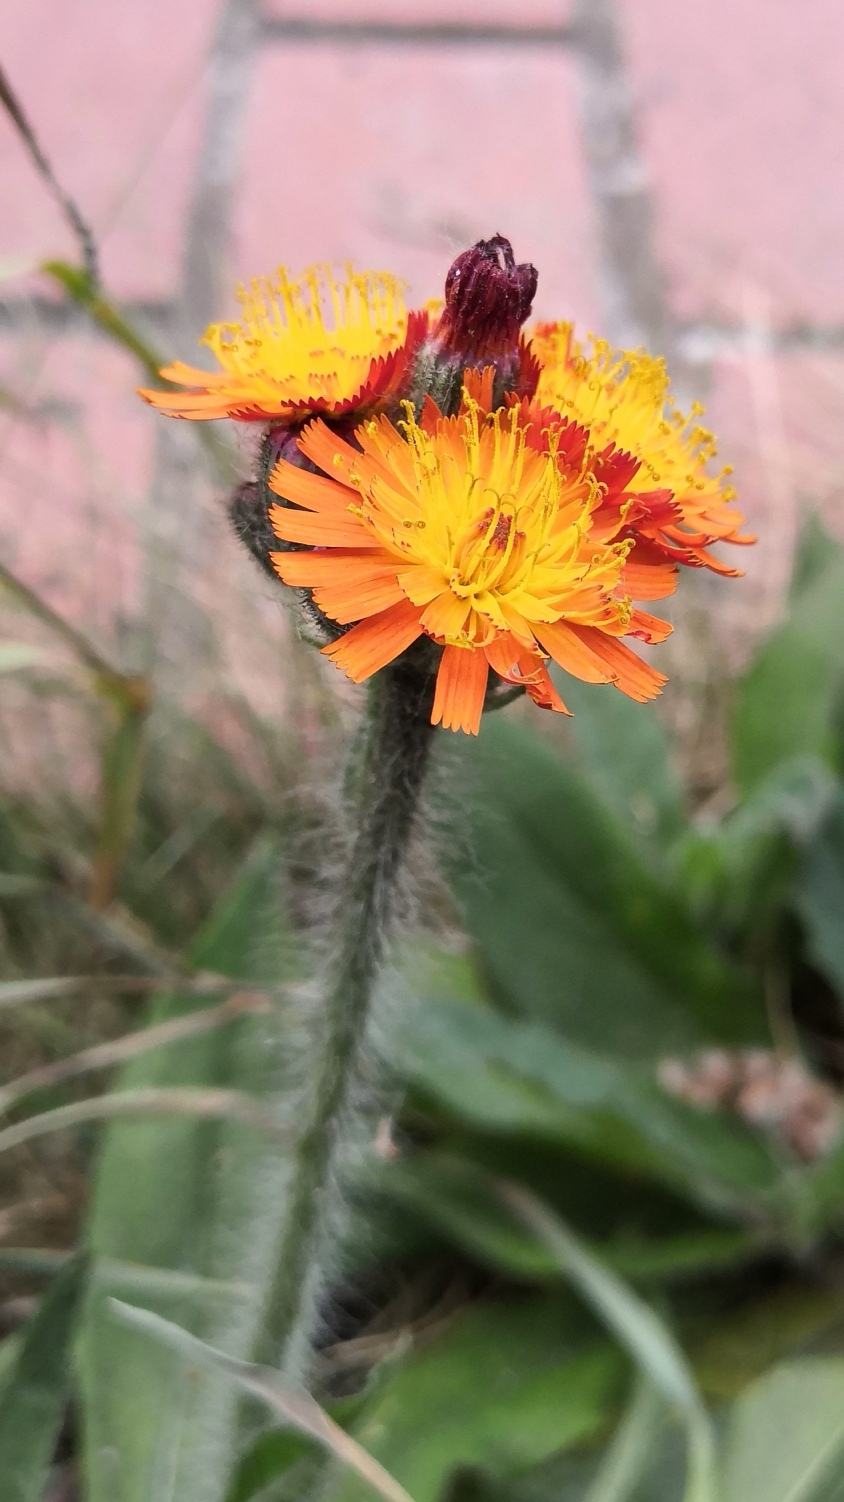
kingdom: Plantae
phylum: Tracheophyta
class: Magnoliopsida
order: Asterales
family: Asteraceae
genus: Pilosella
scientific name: Pilosella aurantiaca
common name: Fox-and-cubs
